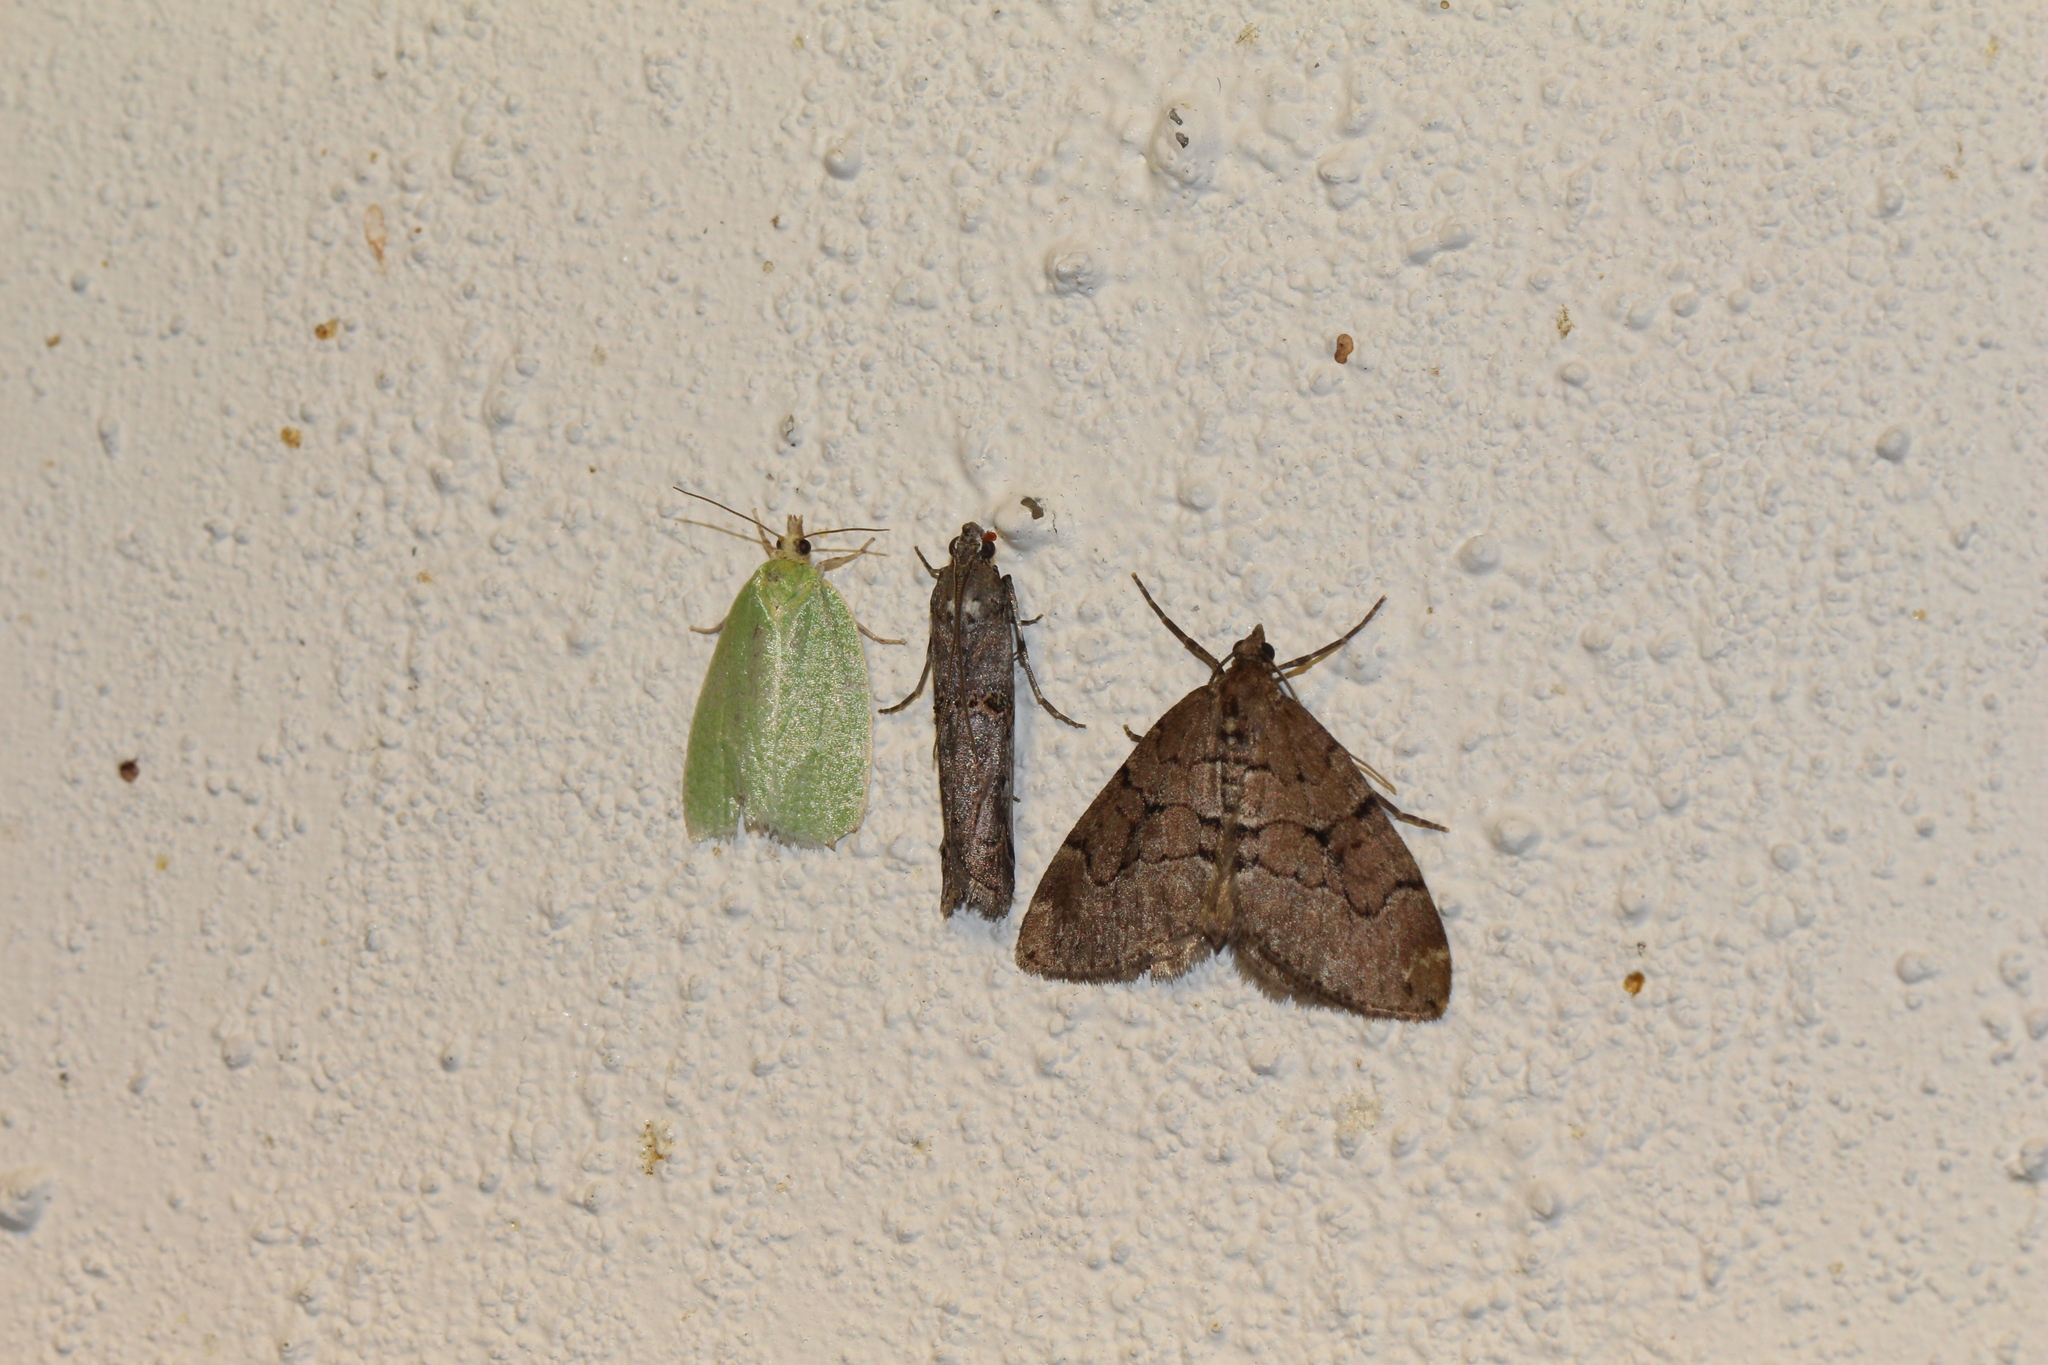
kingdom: Animalia
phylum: Arthropoda
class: Insecta
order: Lepidoptera
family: Tortricidae
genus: Tortrix
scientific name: Tortrix viridana
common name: Green oak tortrix
